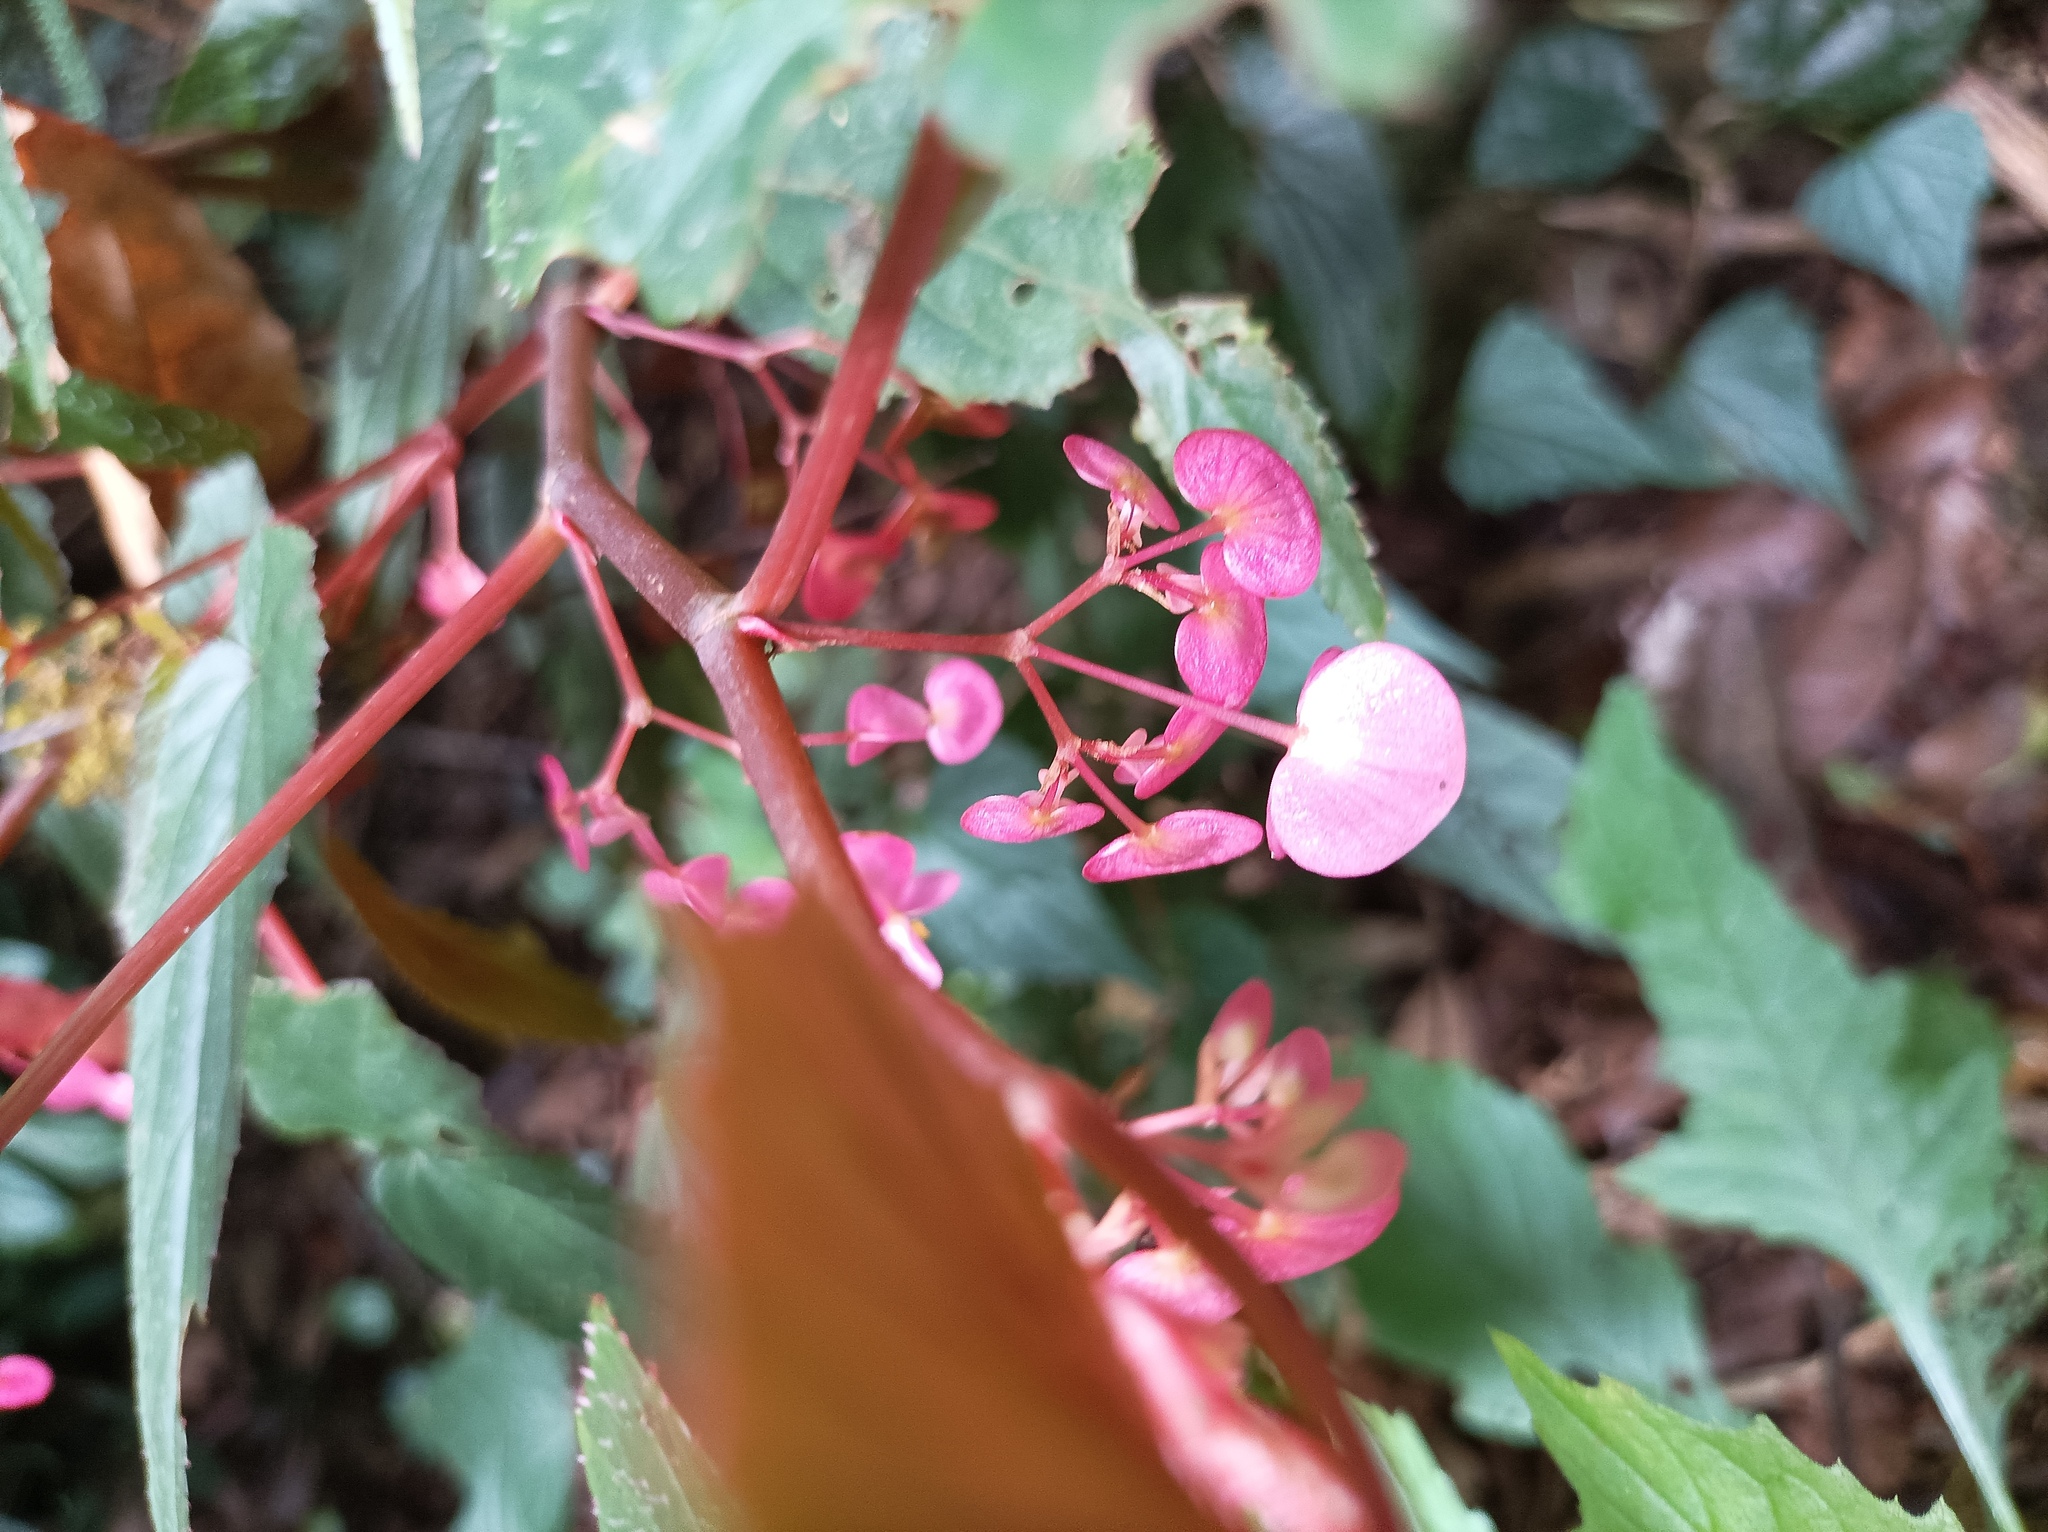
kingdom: Plantae
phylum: Tracheophyta
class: Magnoliopsida
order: Cucurbitales
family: Begoniaceae
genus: Begonia
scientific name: Begonia malabarica
